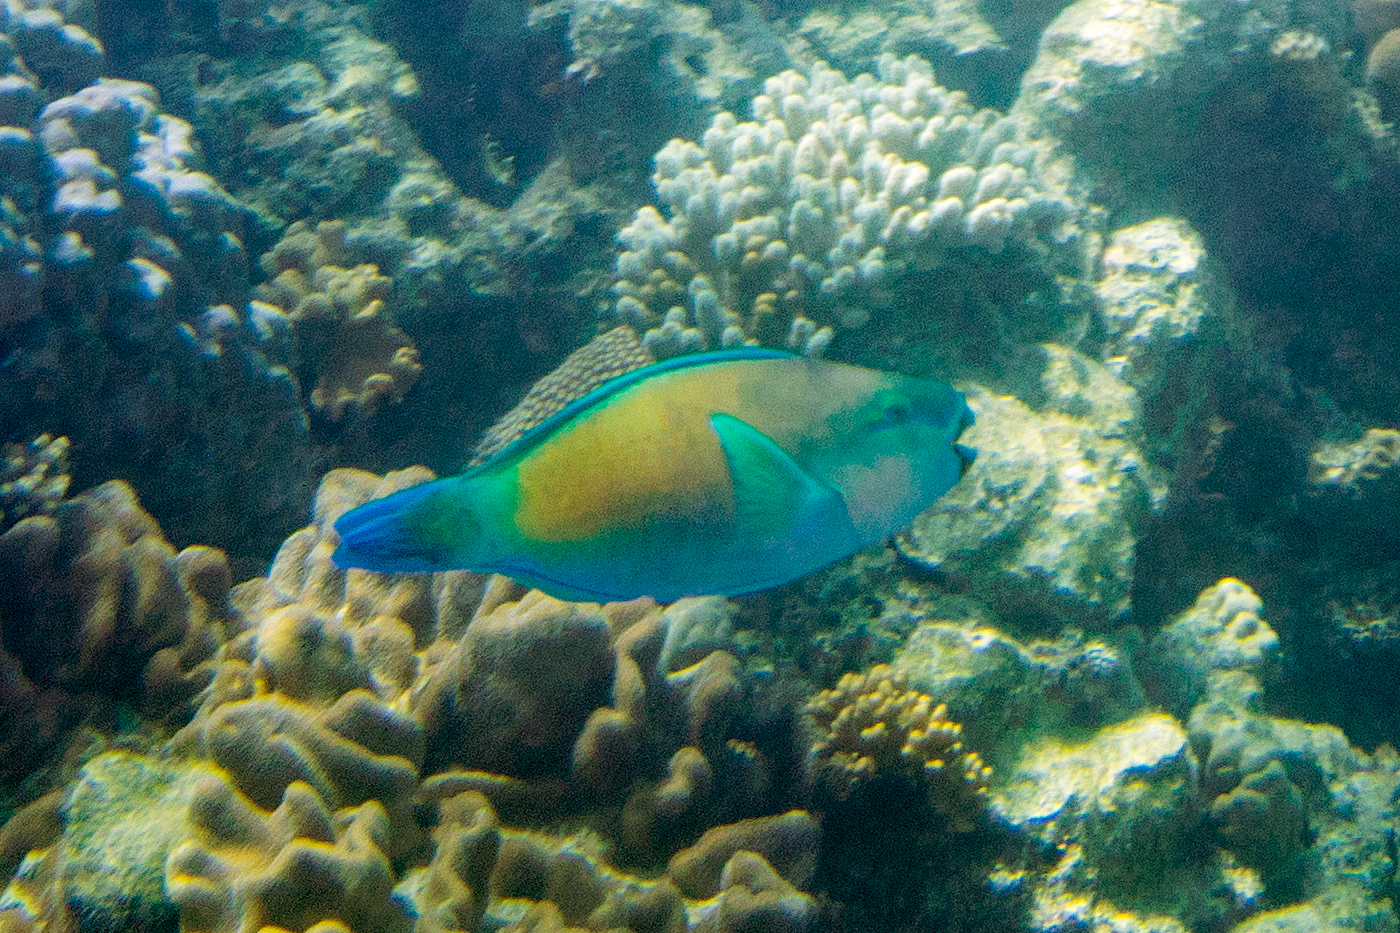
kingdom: Animalia
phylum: Chordata
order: Perciformes
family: Scaridae
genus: Chlorurus
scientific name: Chlorurus spilurus
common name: Bullethead parrotfish
